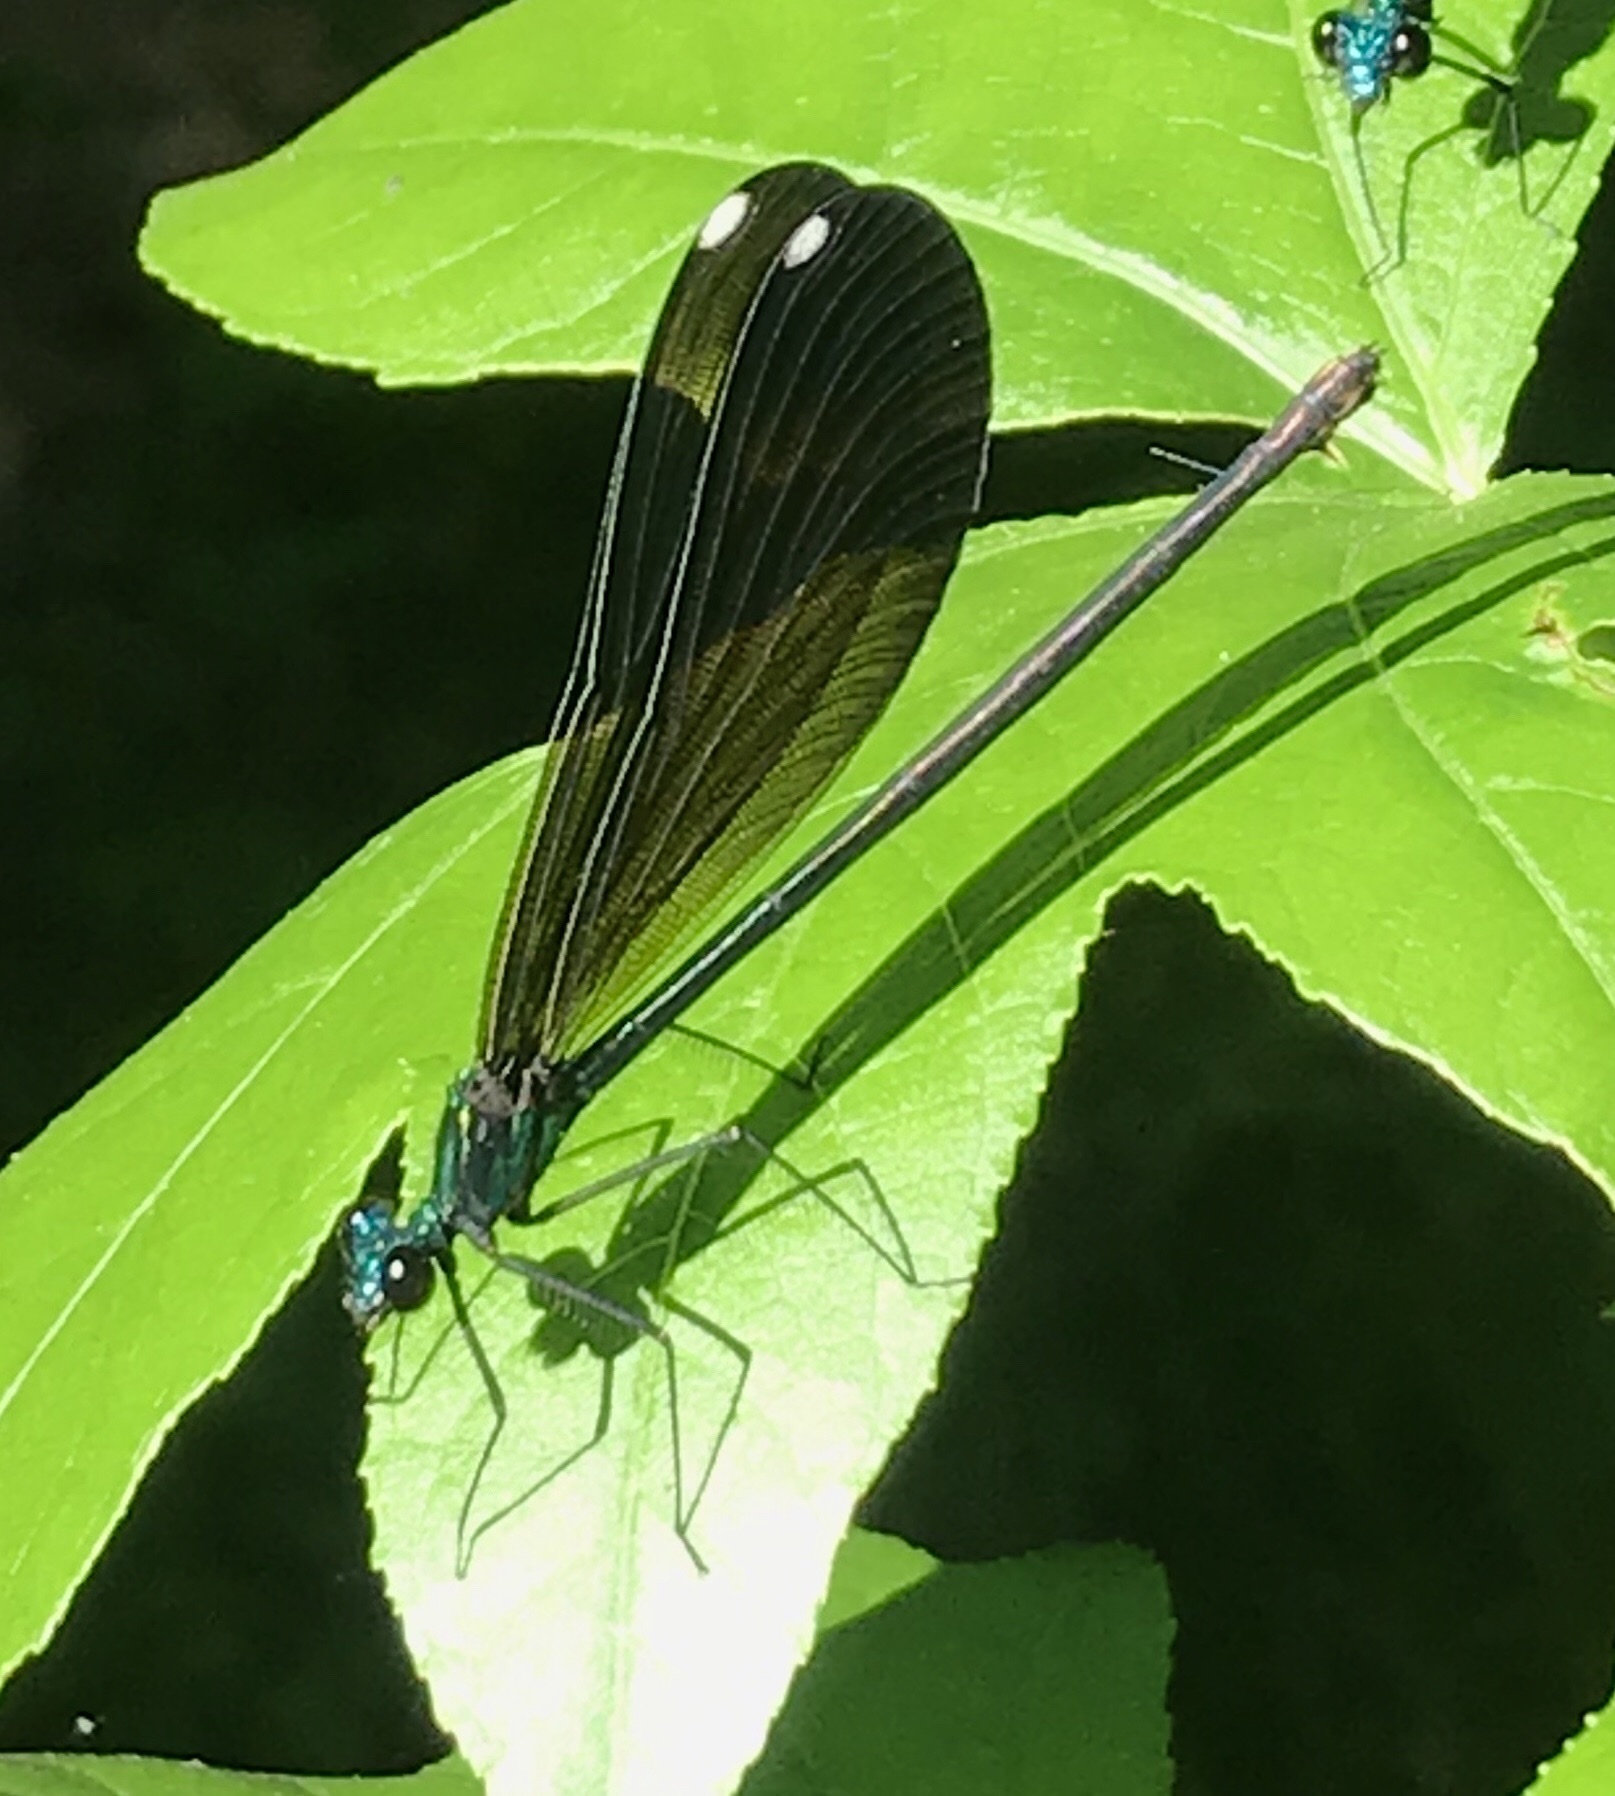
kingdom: Animalia
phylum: Arthropoda
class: Insecta
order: Odonata
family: Calopterygidae
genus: Calopteryx
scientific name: Calopteryx maculata
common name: Ebony jewelwing
